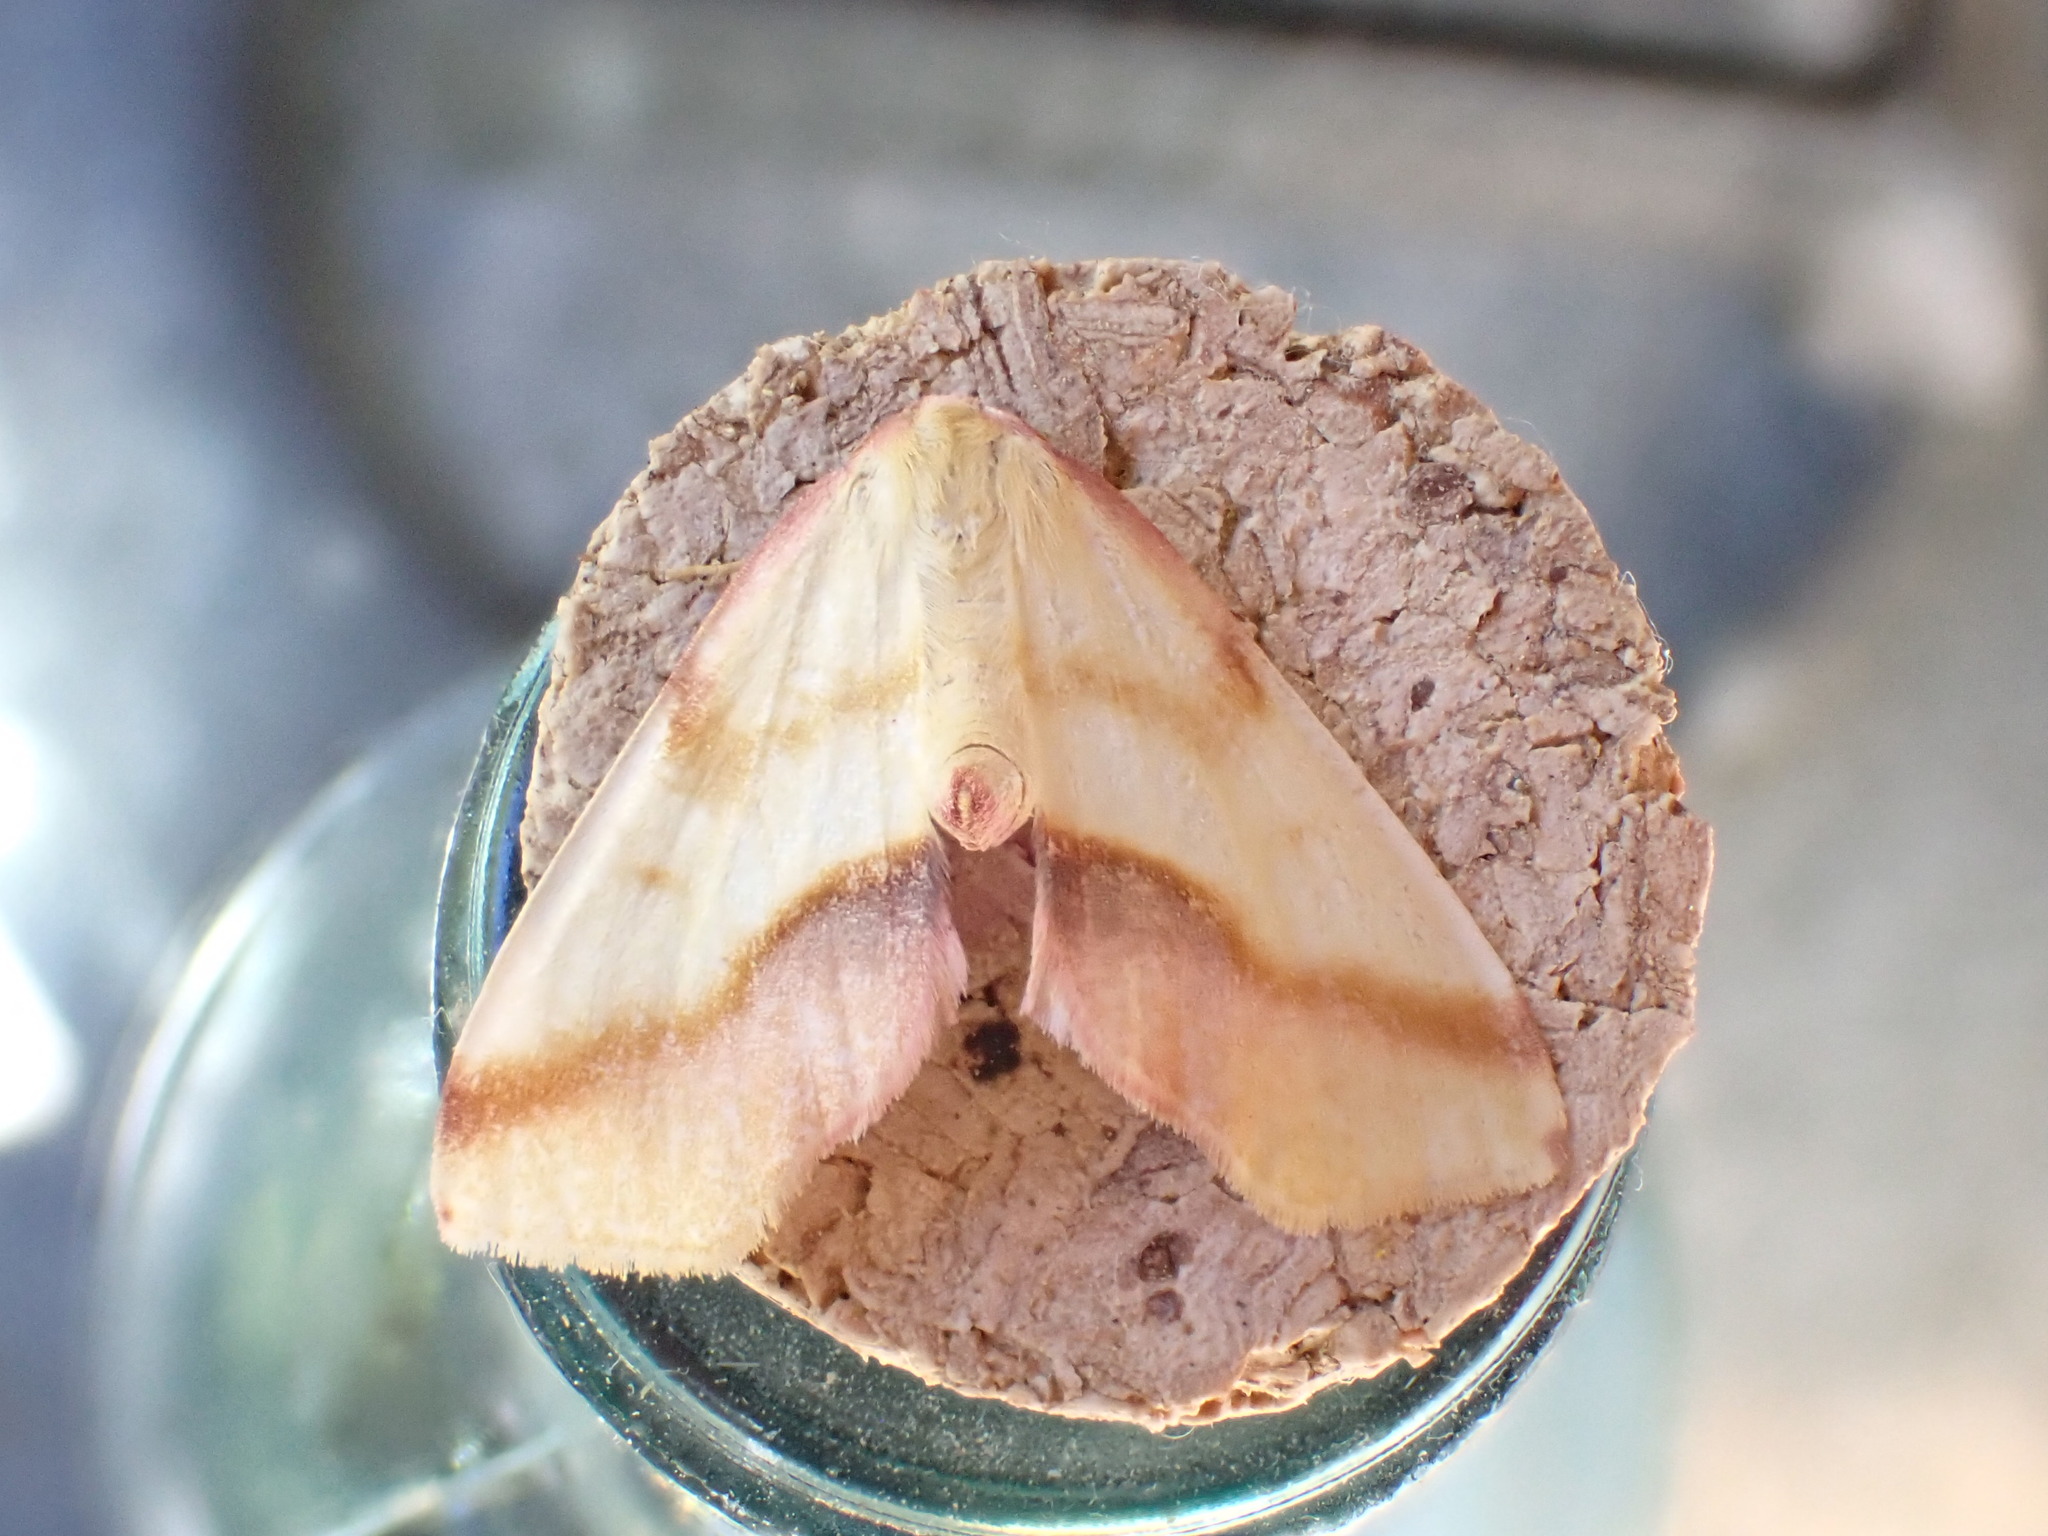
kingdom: Animalia
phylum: Arthropoda
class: Insecta
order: Lepidoptera
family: Geometridae
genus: Plagodis
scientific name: Plagodis serinaria
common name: Lemon plagodis
